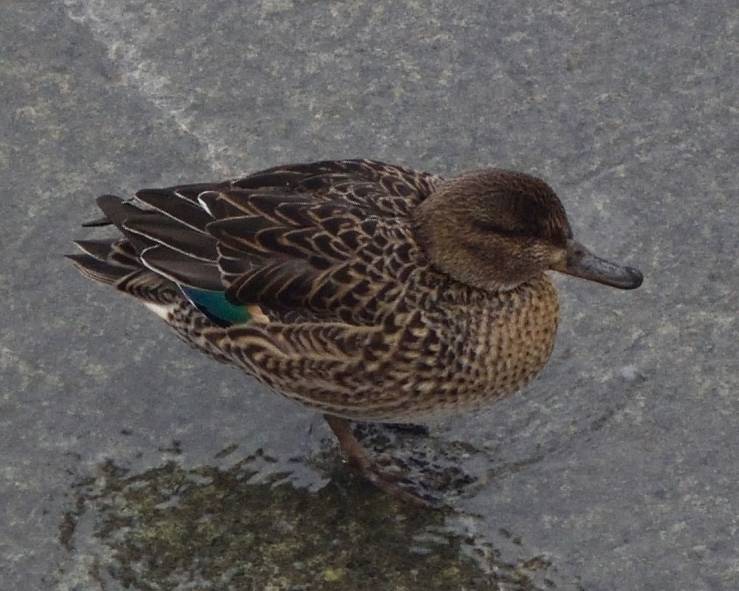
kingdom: Animalia
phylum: Chordata
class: Aves
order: Anseriformes
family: Anatidae
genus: Anas
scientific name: Anas crecca
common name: Eurasian teal
